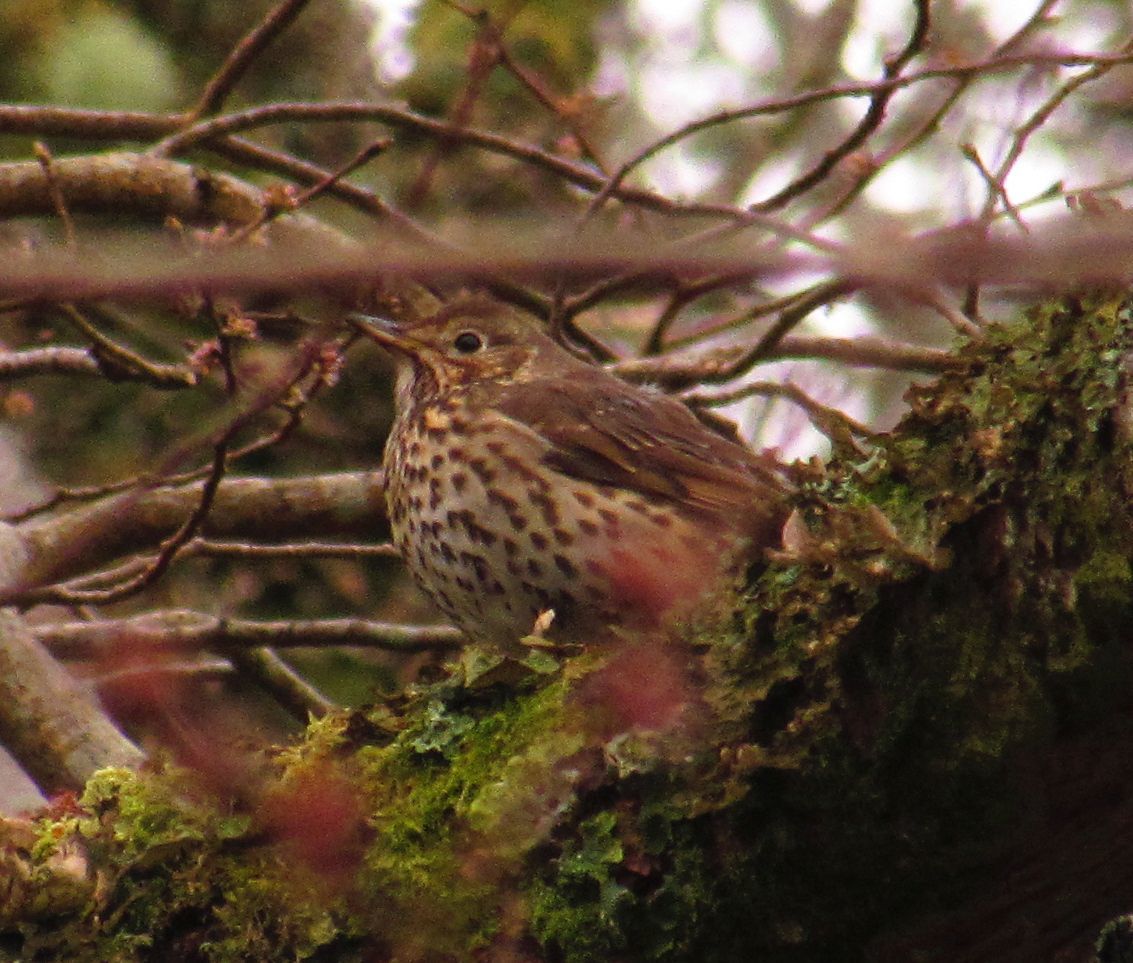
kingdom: Animalia
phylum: Chordata
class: Aves
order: Passeriformes
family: Turdidae
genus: Turdus
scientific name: Turdus philomelos
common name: Song thrush
